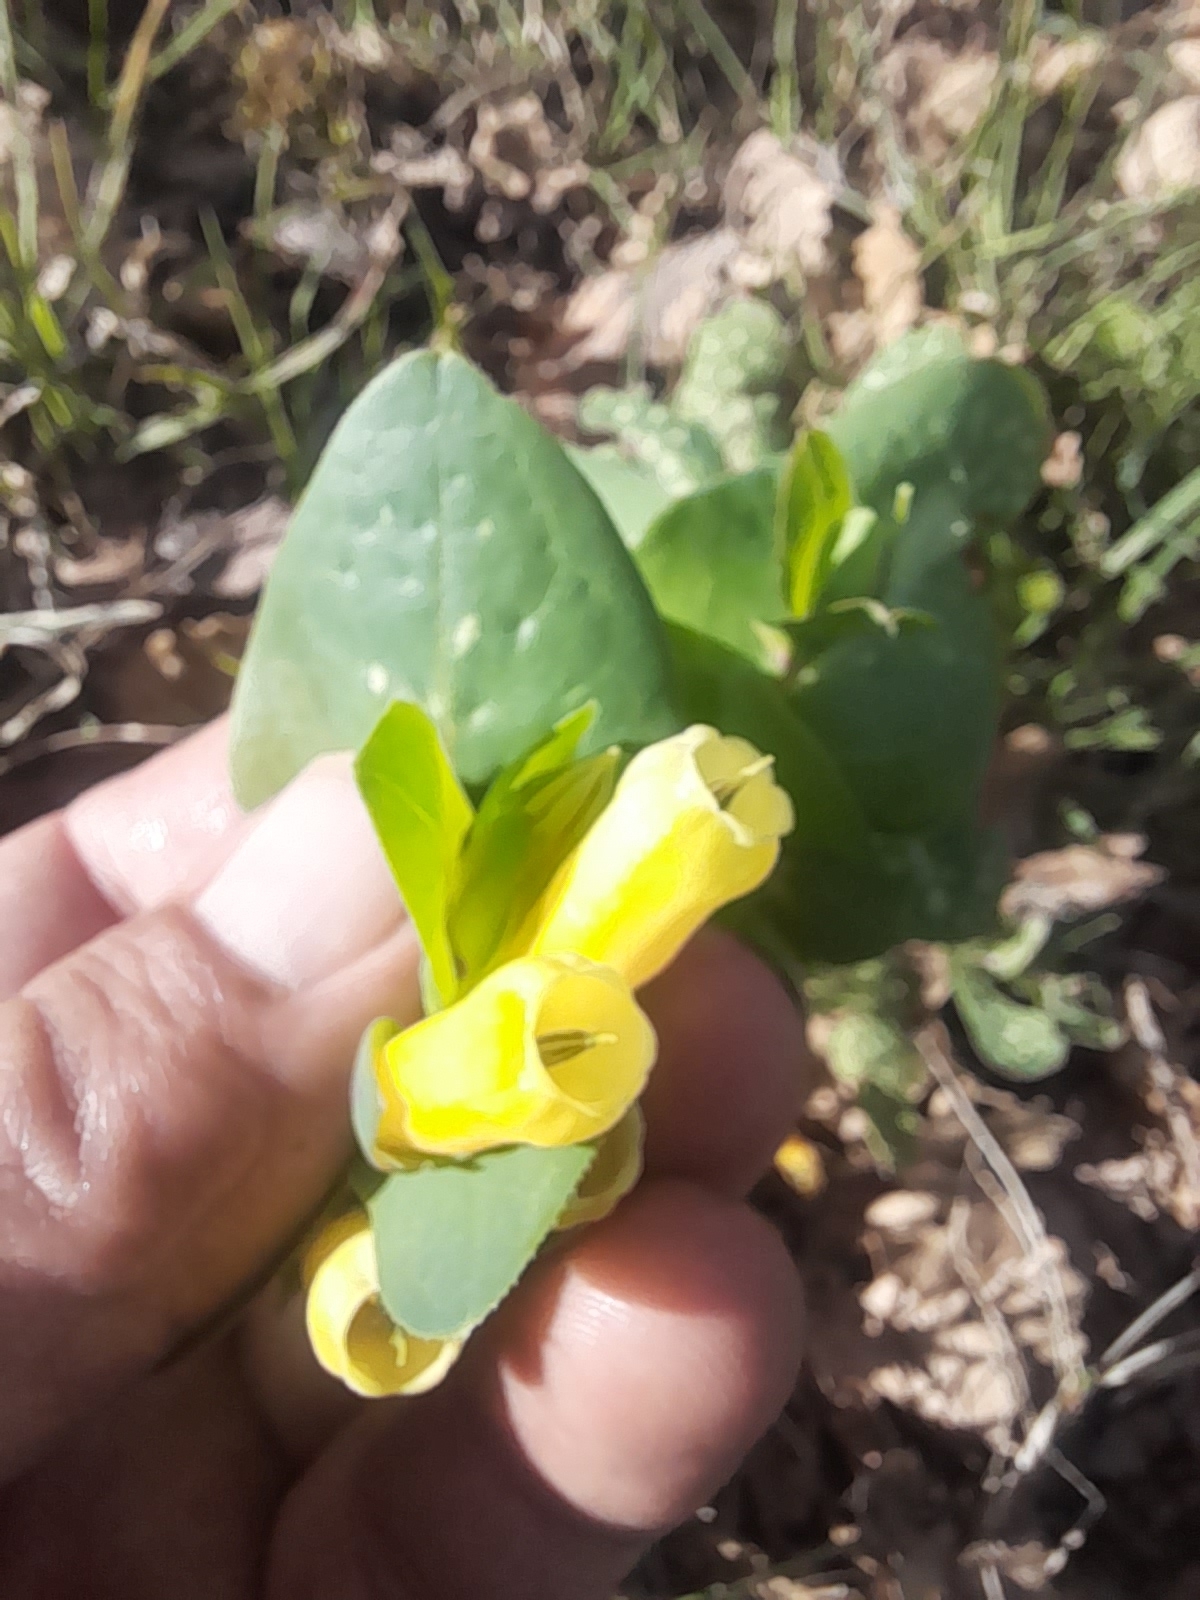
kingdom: Plantae
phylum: Tracheophyta
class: Magnoliopsida
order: Boraginales
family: Boraginaceae
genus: Cerinthe
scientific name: Cerinthe major
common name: Greater honeywort
